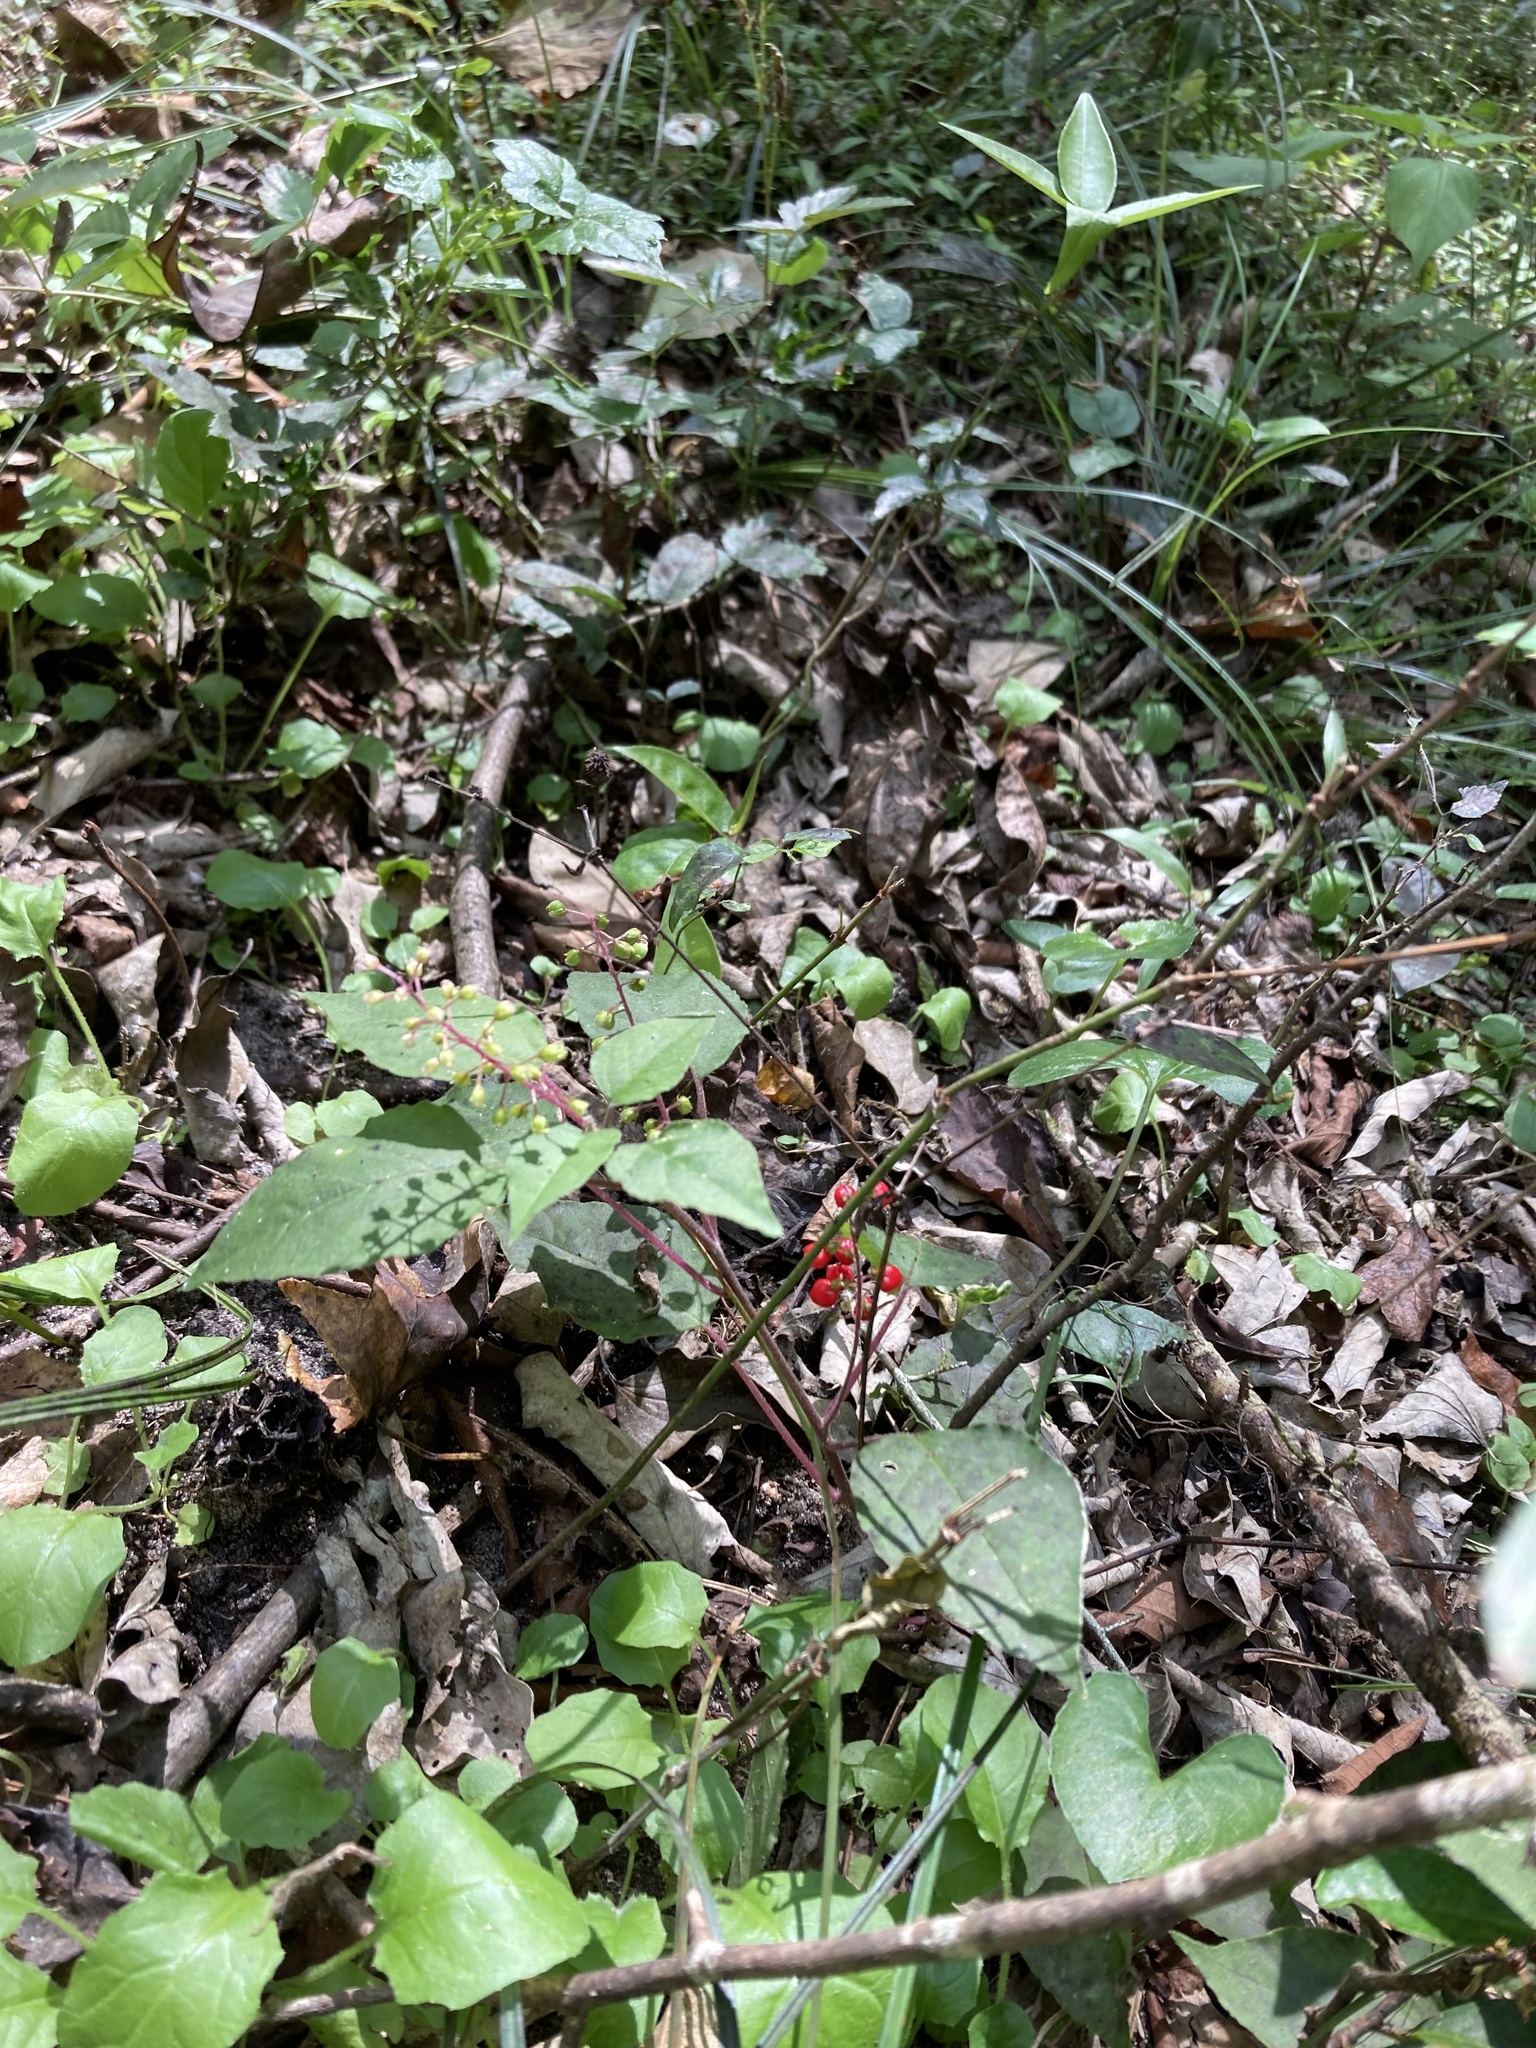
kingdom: Plantae
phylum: Tracheophyta
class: Magnoliopsida
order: Caryophyllales
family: Phytolaccaceae
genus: Rivina
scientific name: Rivina humilis
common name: Rougeplant
